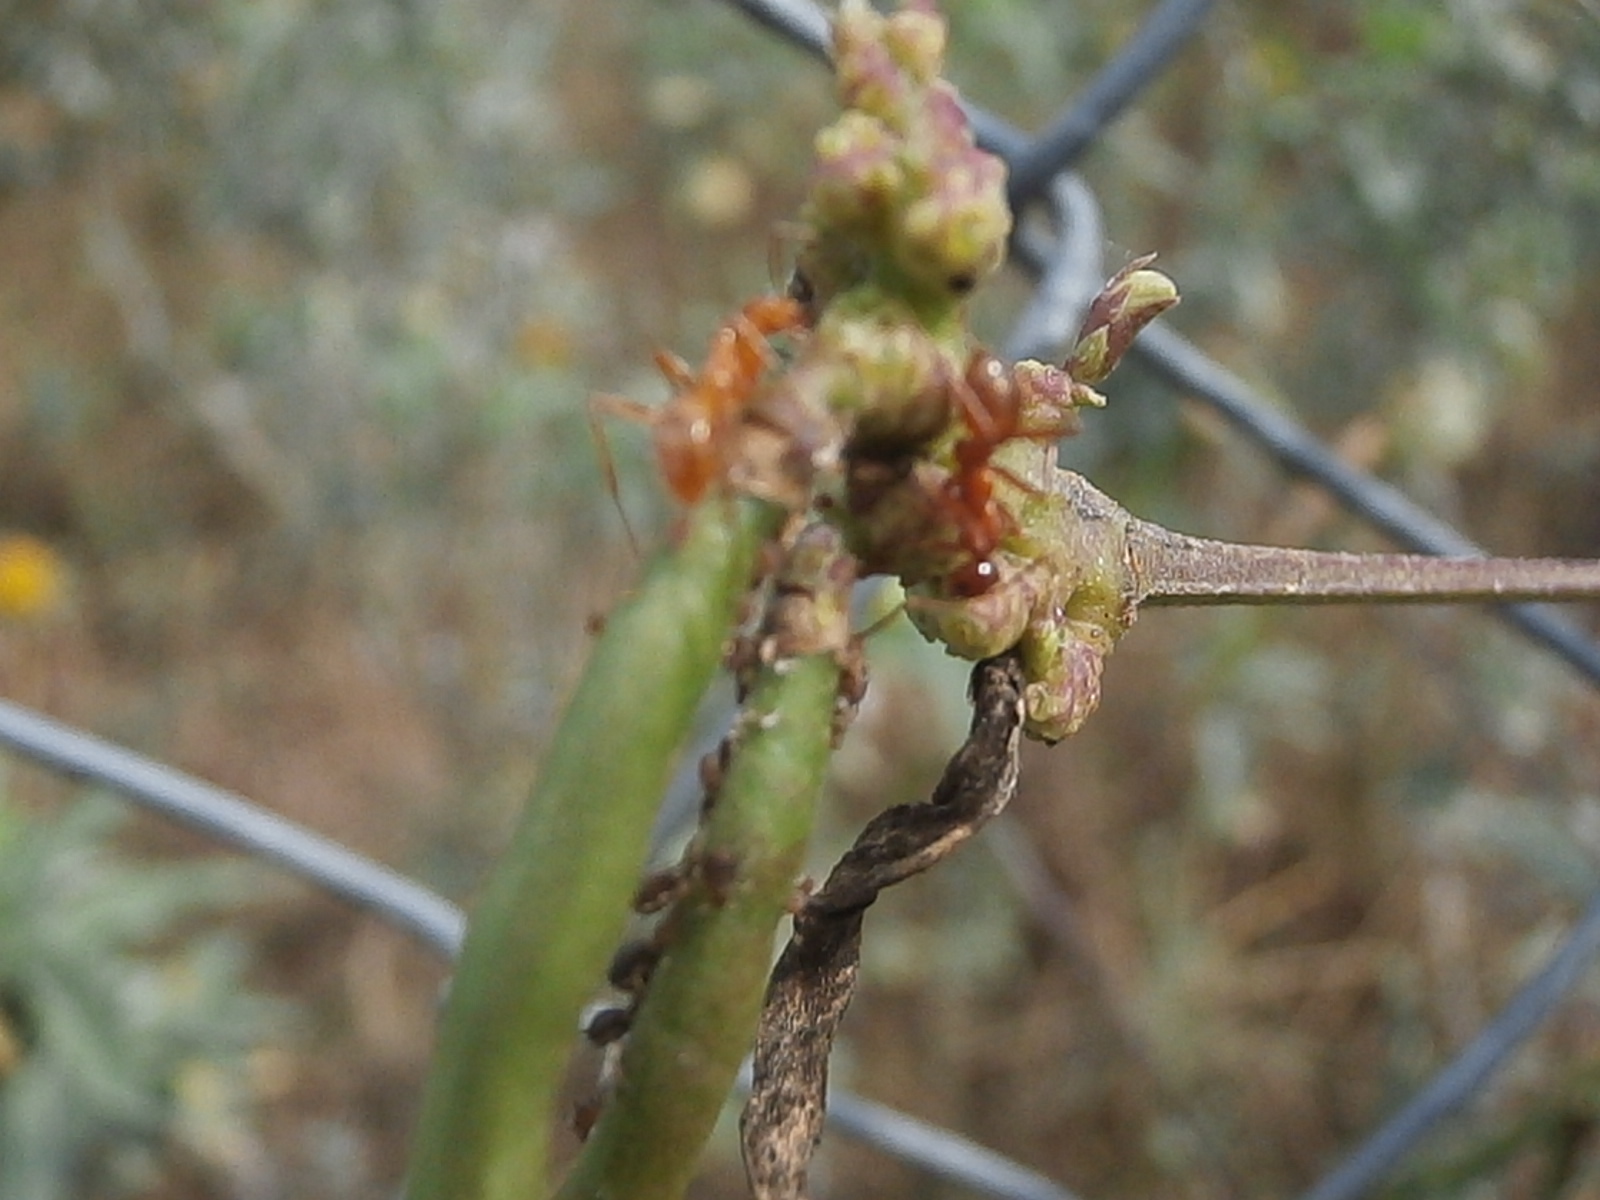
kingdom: Animalia
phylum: Arthropoda
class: Insecta
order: Hymenoptera
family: Formicidae
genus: Formica
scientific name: Formica
